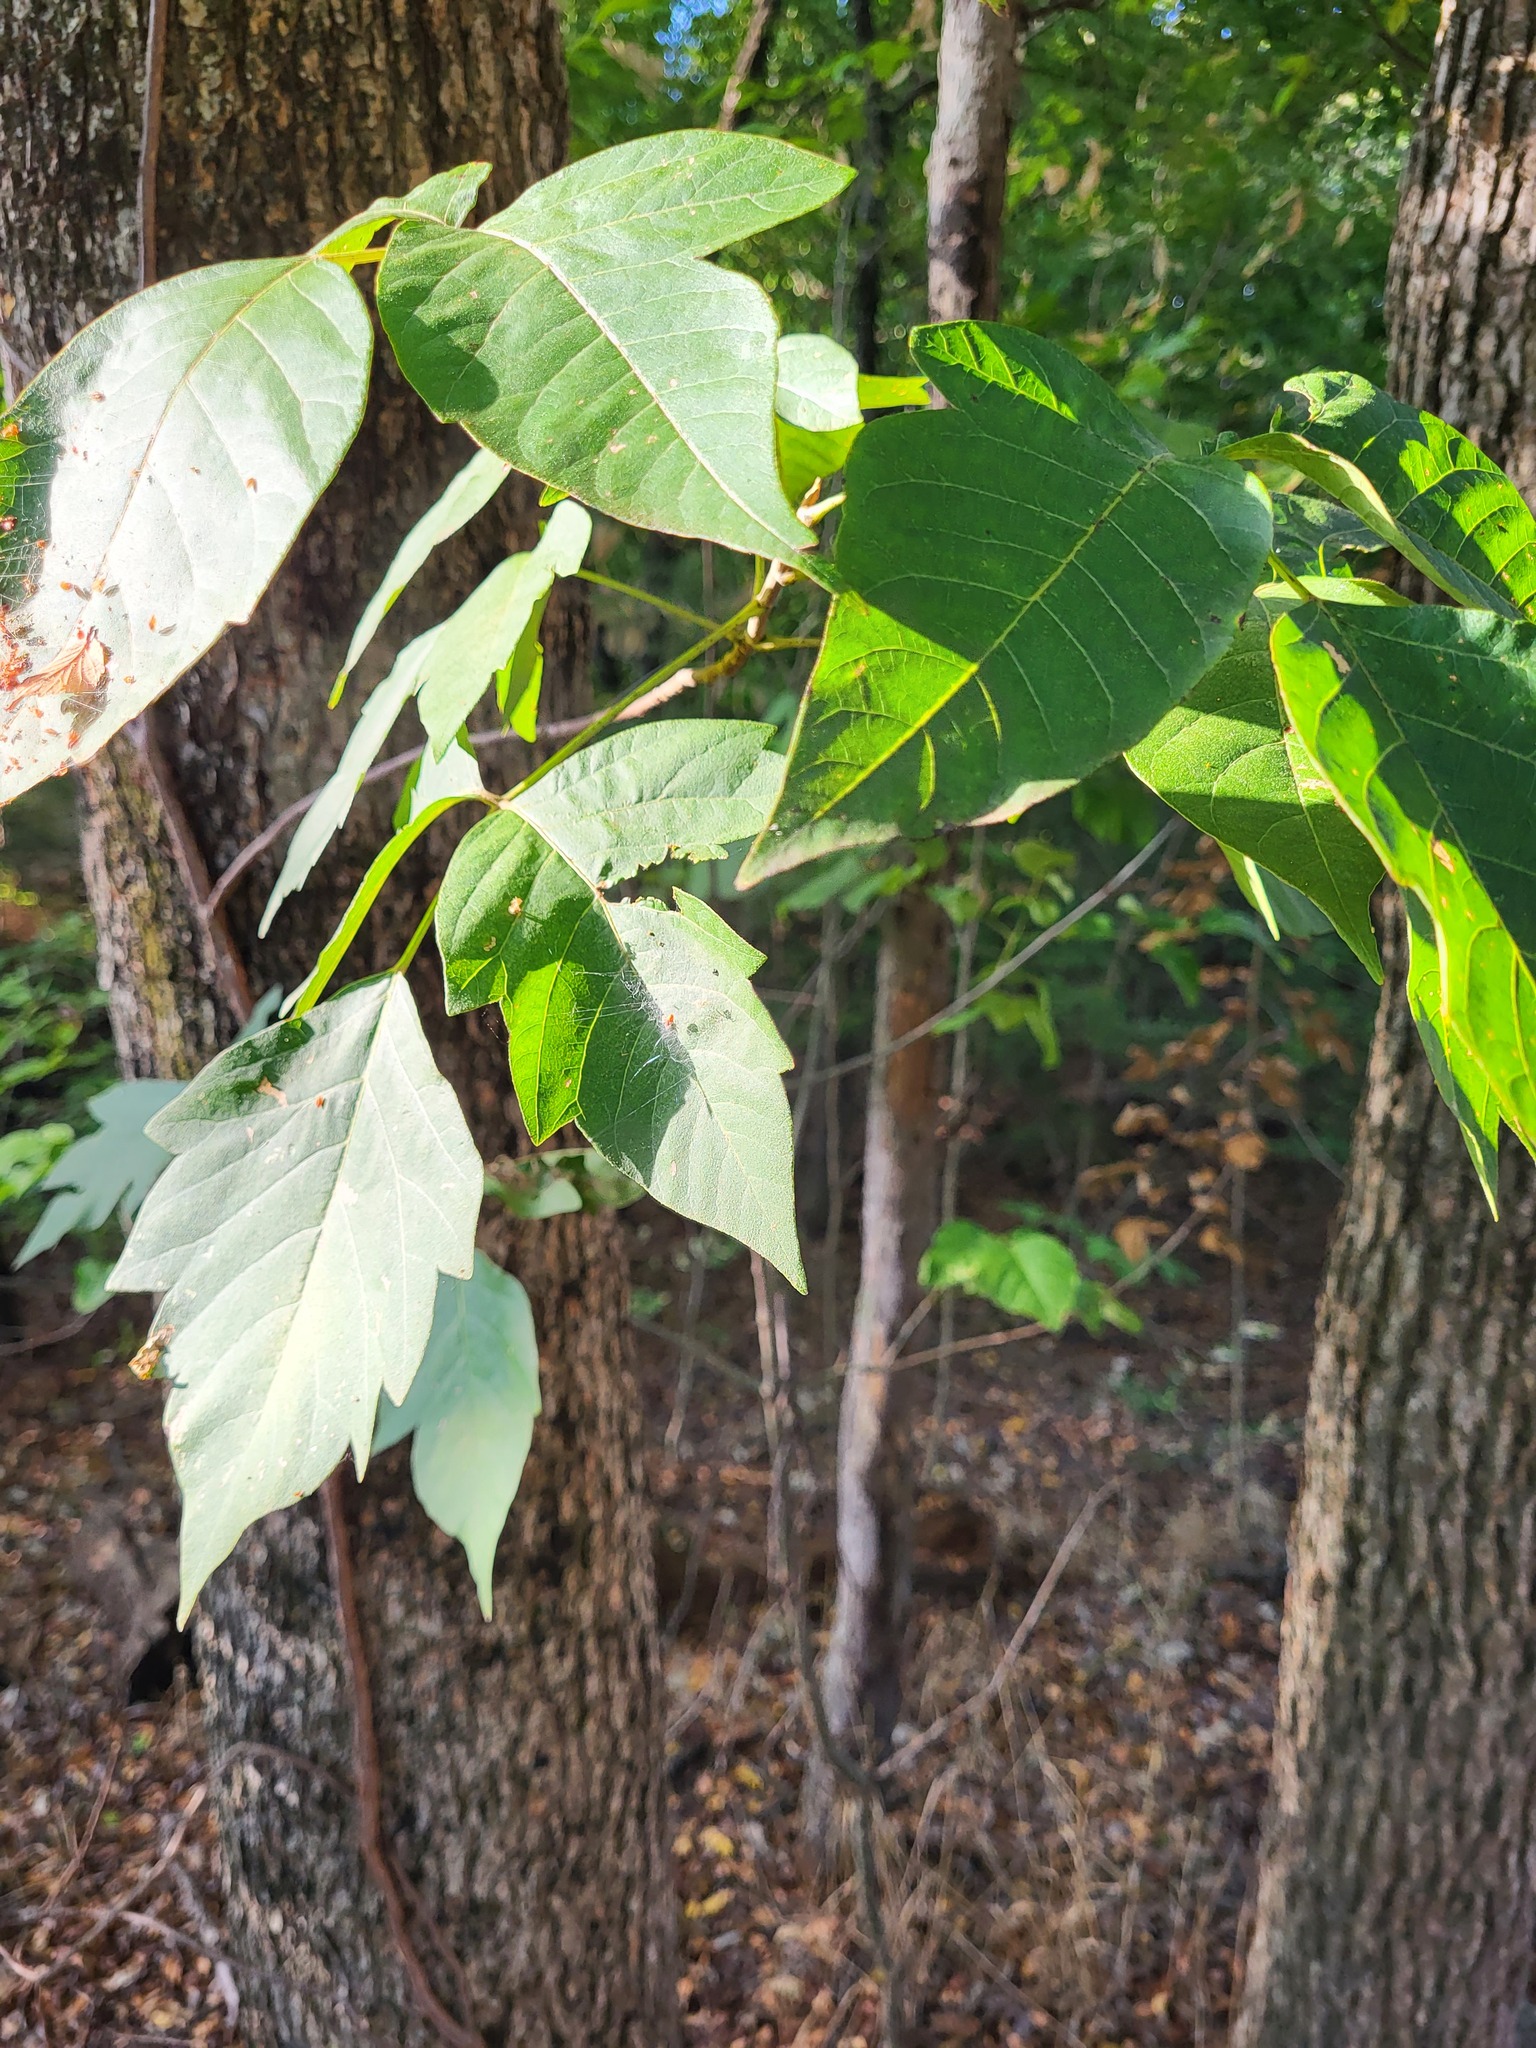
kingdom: Plantae
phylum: Tracheophyta
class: Magnoliopsida
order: Sapindales
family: Sapindaceae
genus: Acer
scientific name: Acer negundo
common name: Ashleaf maple
